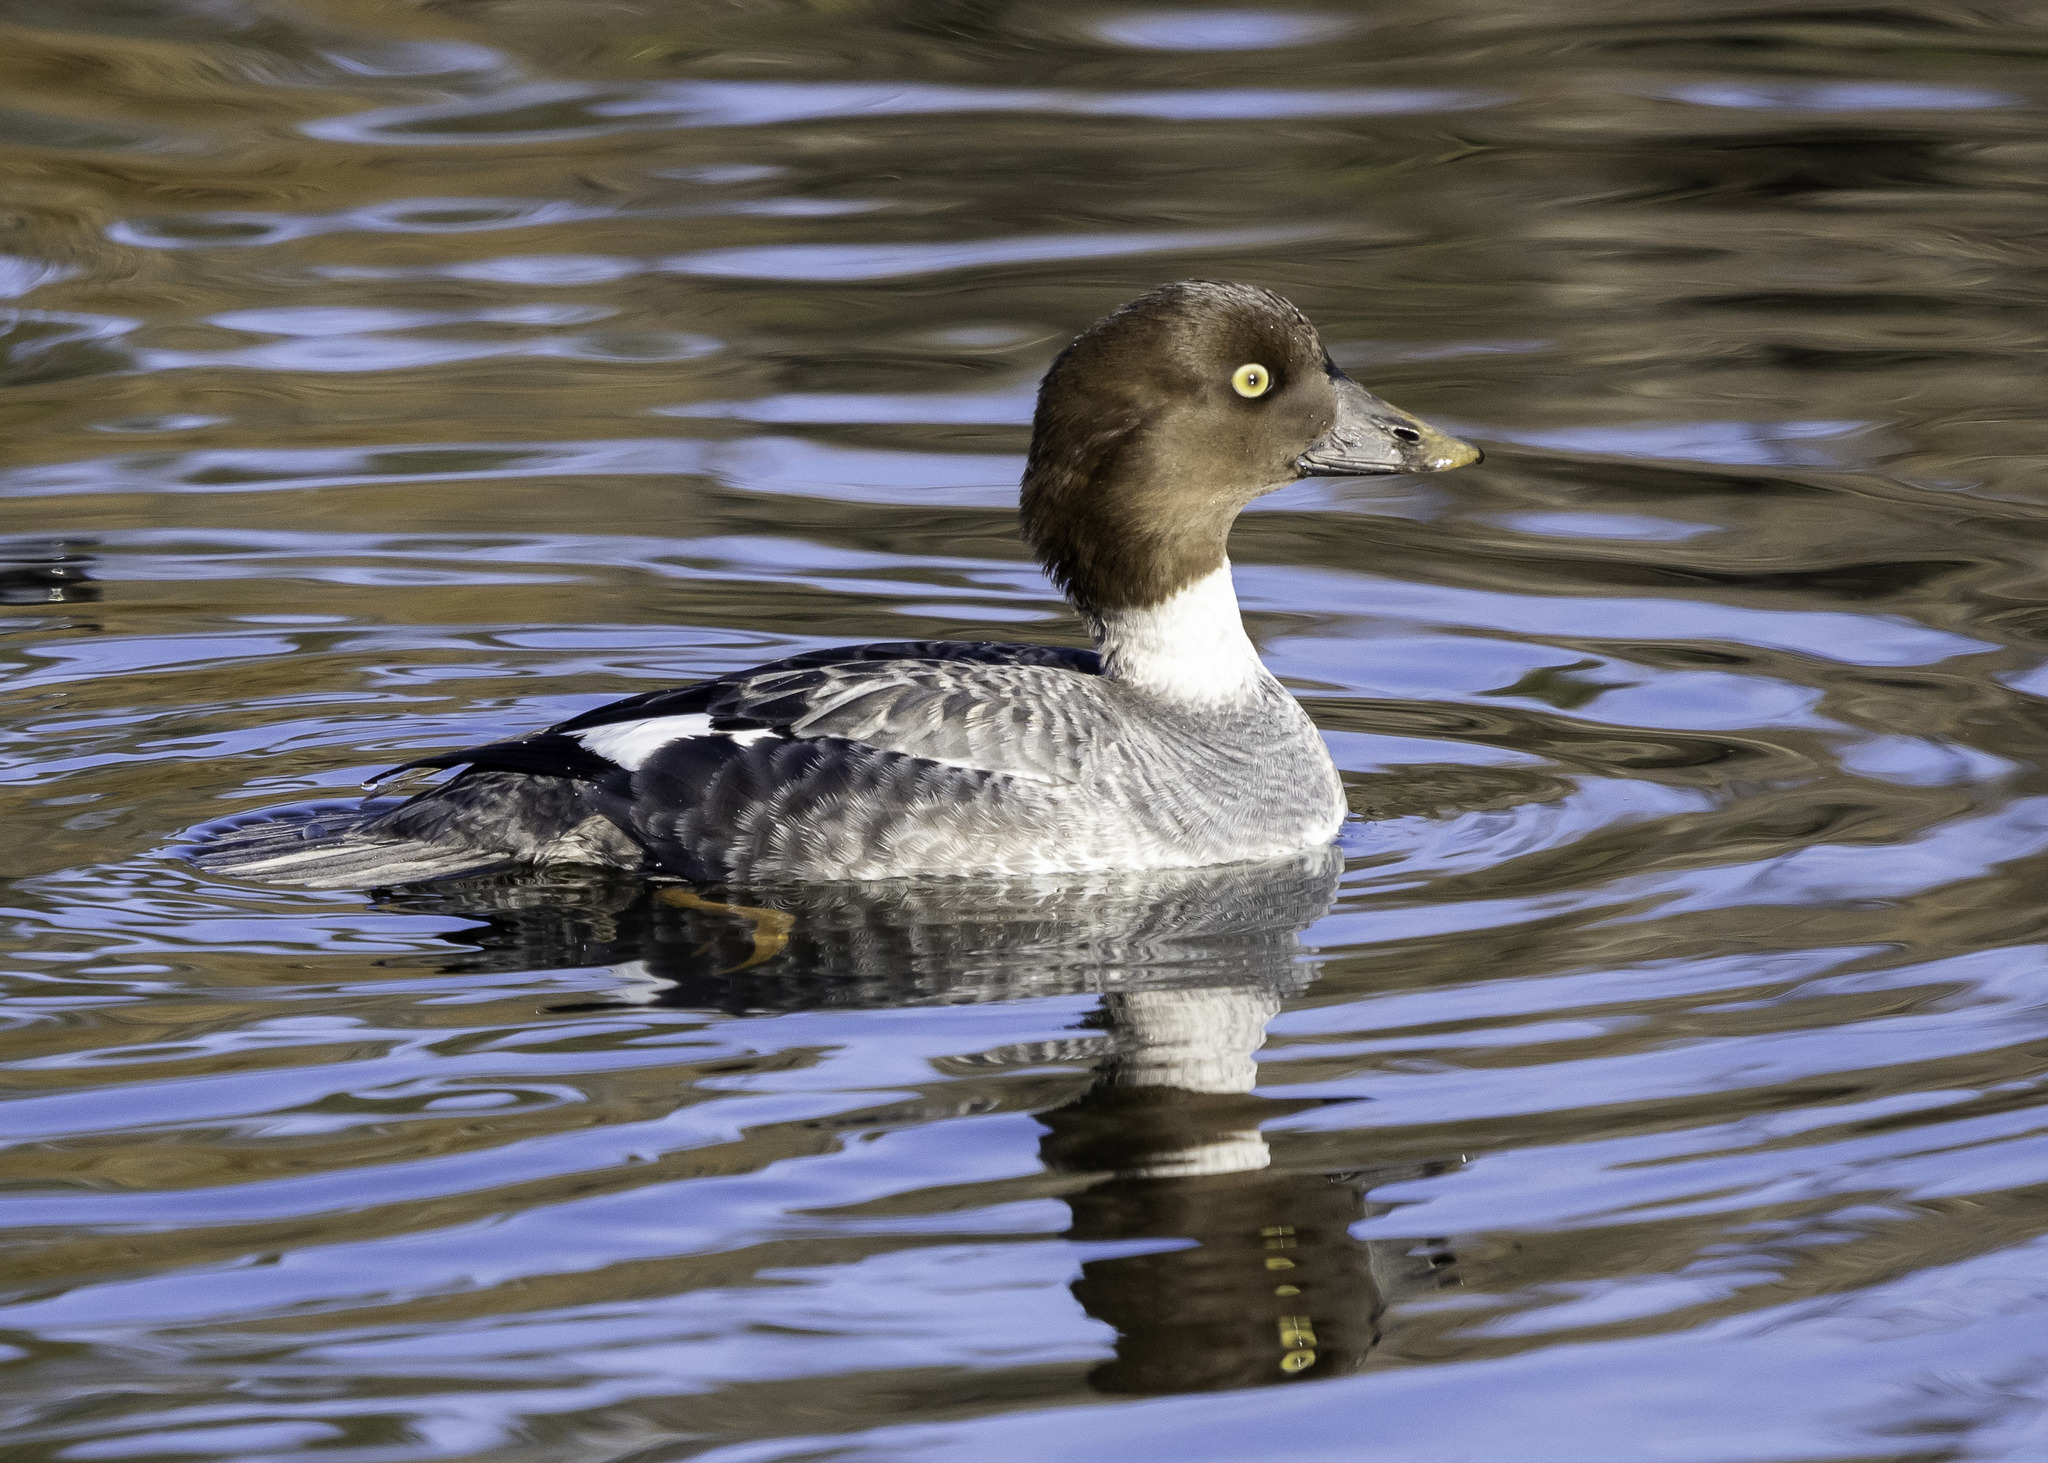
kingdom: Animalia
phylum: Chordata
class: Aves
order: Anseriformes
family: Anatidae
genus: Bucephala
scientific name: Bucephala clangula
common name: Common goldeneye
